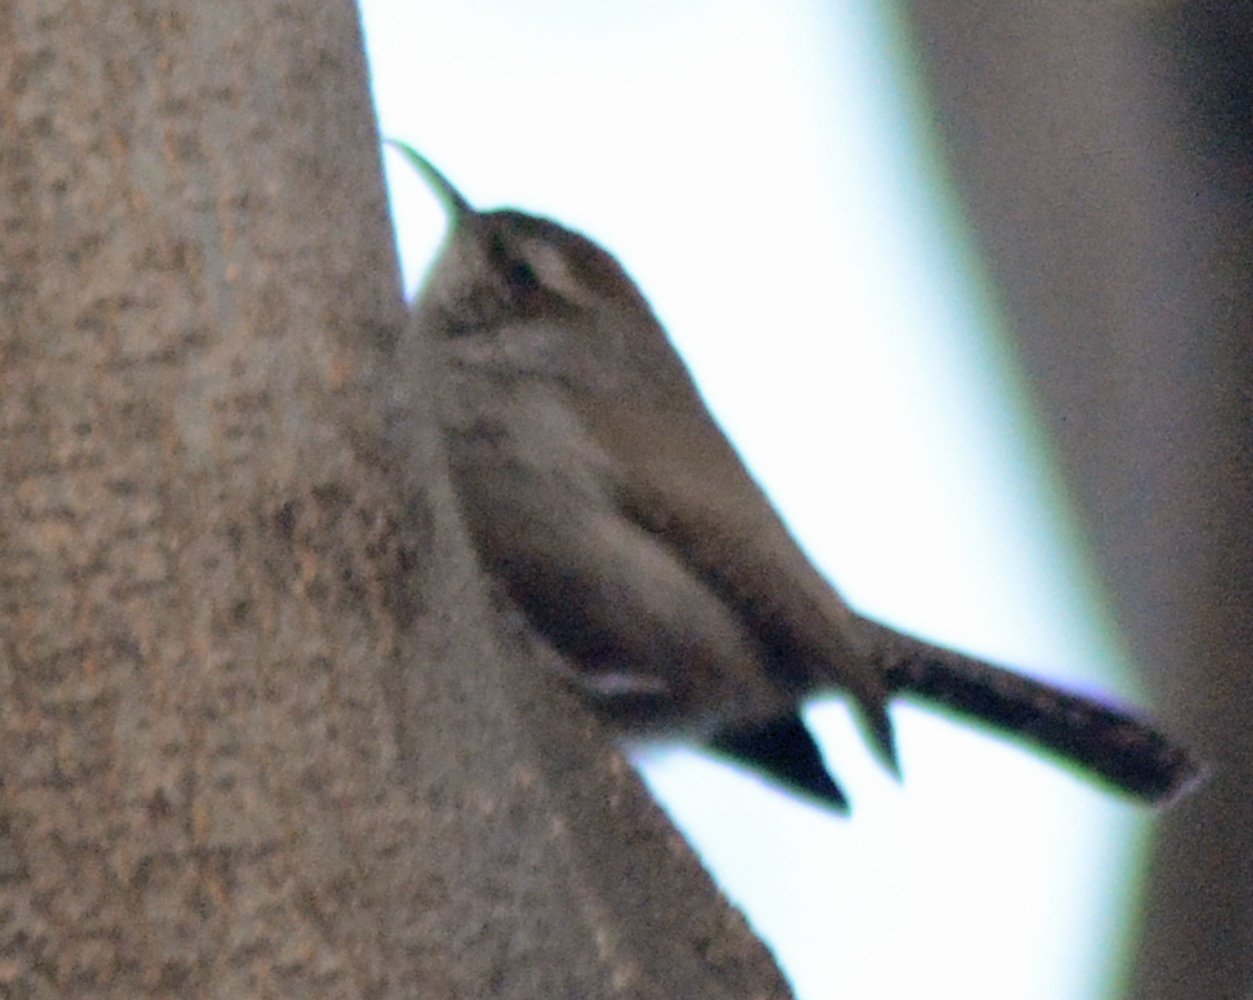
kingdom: Animalia
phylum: Chordata
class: Aves
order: Passeriformes
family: Troglodytidae
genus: Thryomanes
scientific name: Thryomanes bewickii
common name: Bewick's wren
